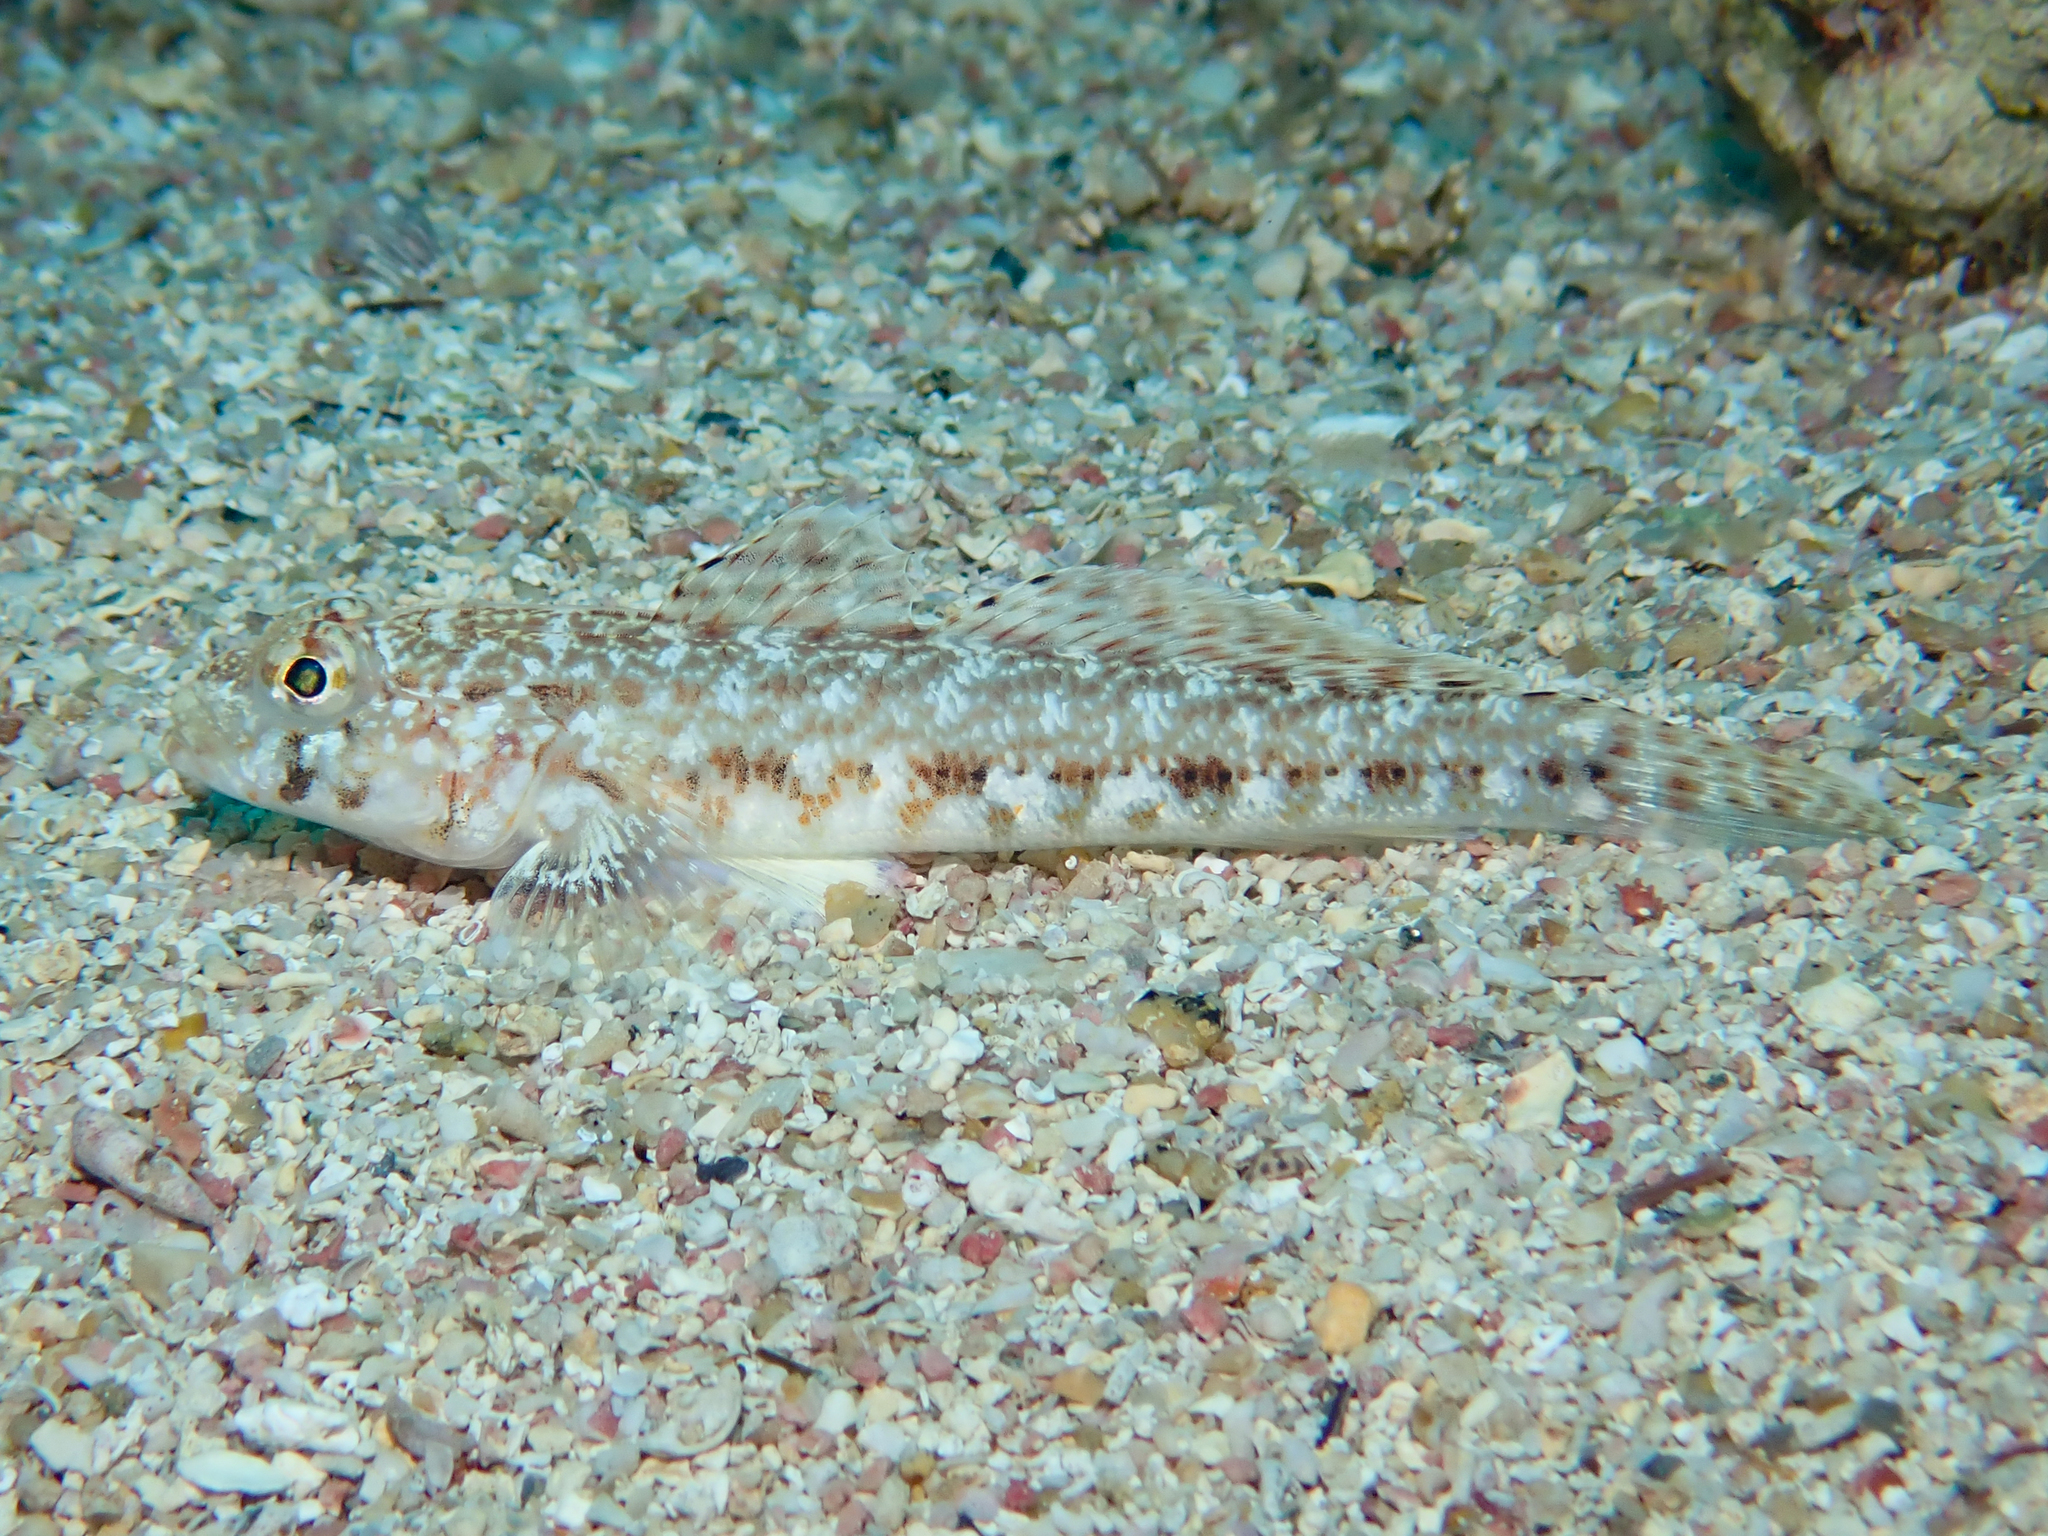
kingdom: Animalia
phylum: Chordata
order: Perciformes
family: Gobiidae
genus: Gobius
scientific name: Gobius geniporus
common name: Slender goby
